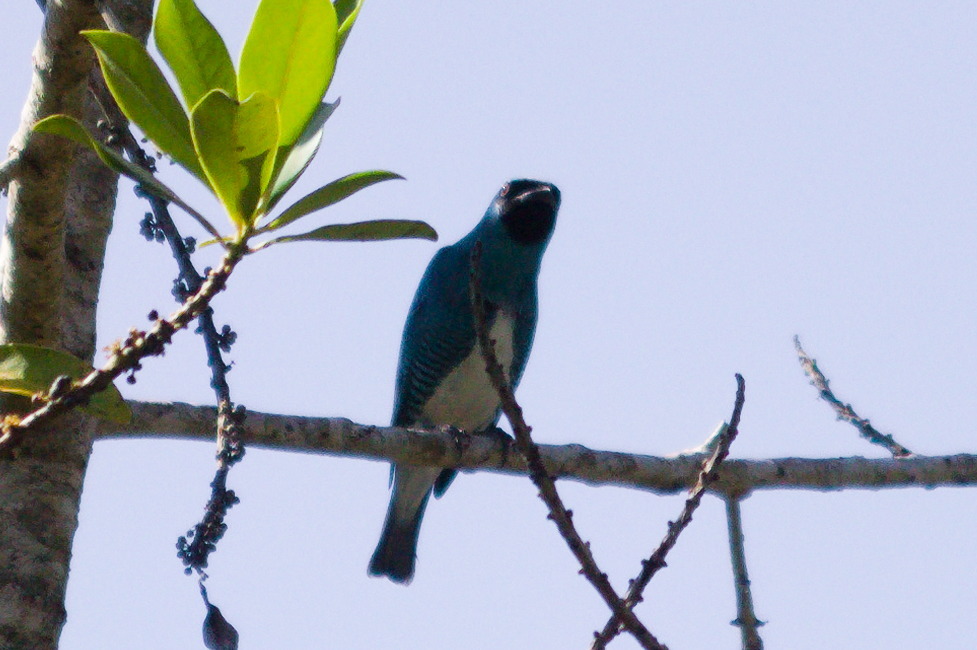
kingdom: Animalia
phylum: Chordata
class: Aves
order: Passeriformes
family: Thraupidae
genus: Tersina
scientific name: Tersina viridis
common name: Swallow tanager
